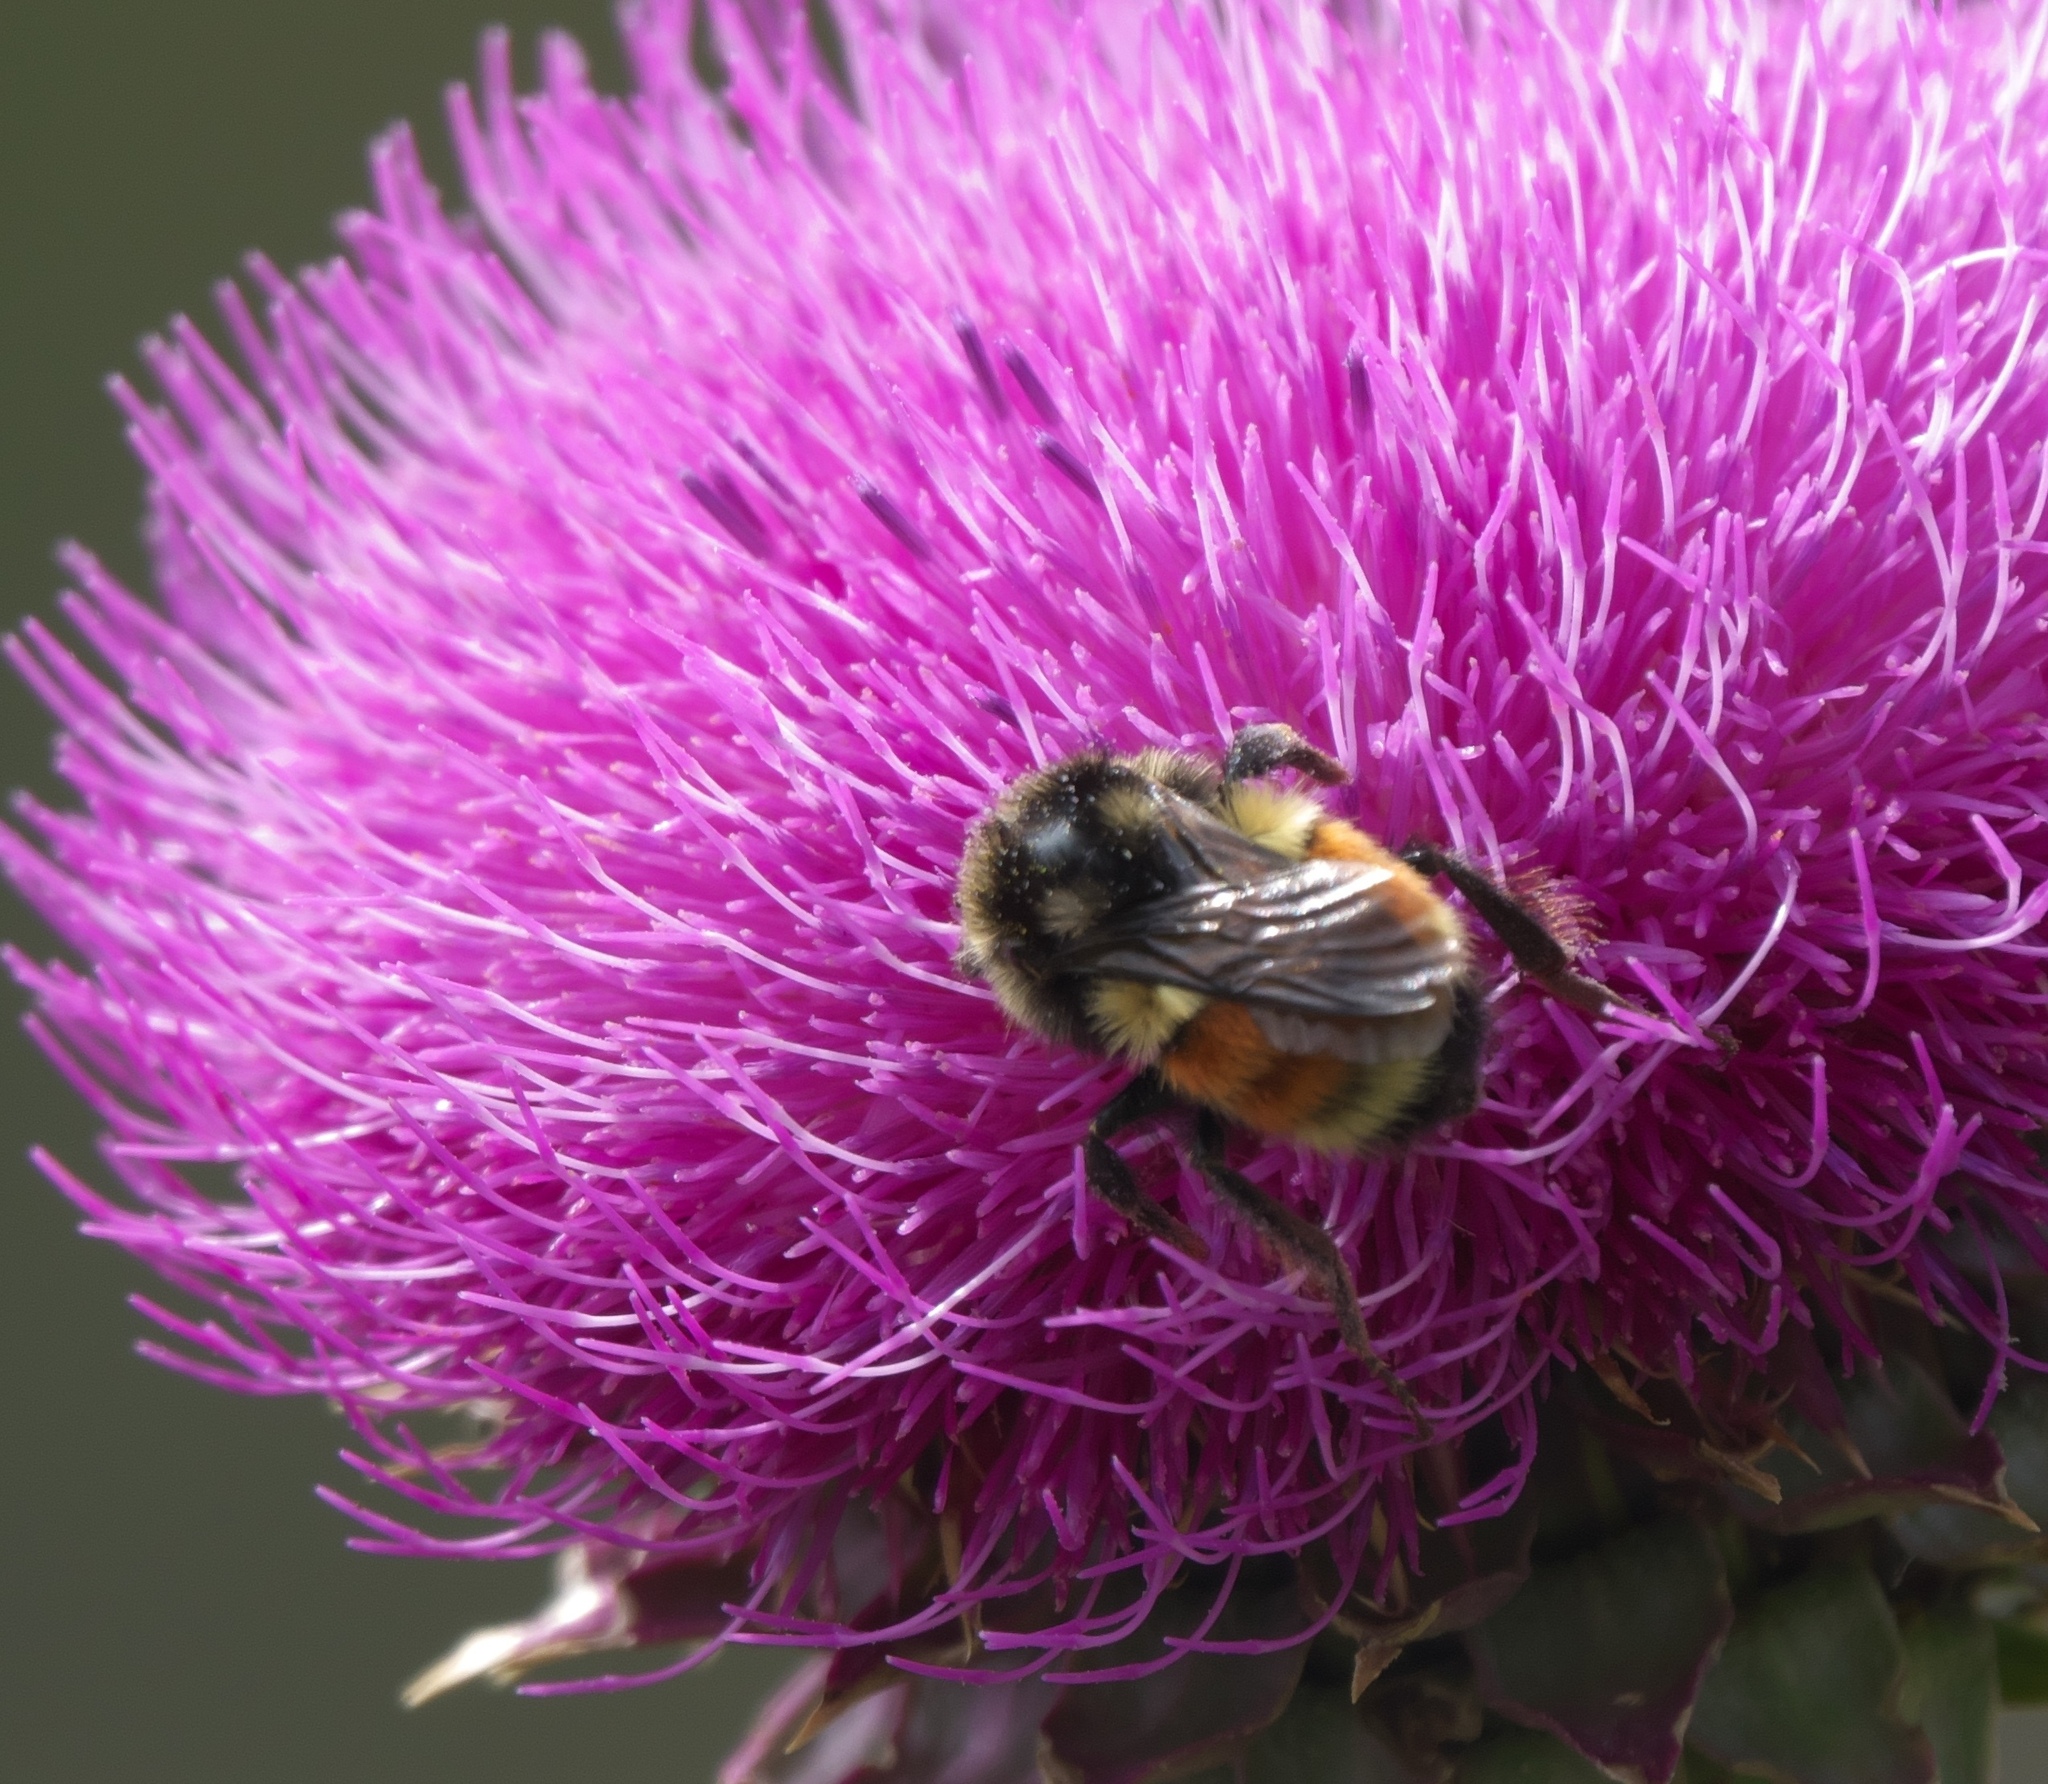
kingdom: Animalia
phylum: Arthropoda
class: Insecta
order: Hymenoptera
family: Apidae
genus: Bombus
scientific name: Bombus bifarius
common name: Two form bumble bee
